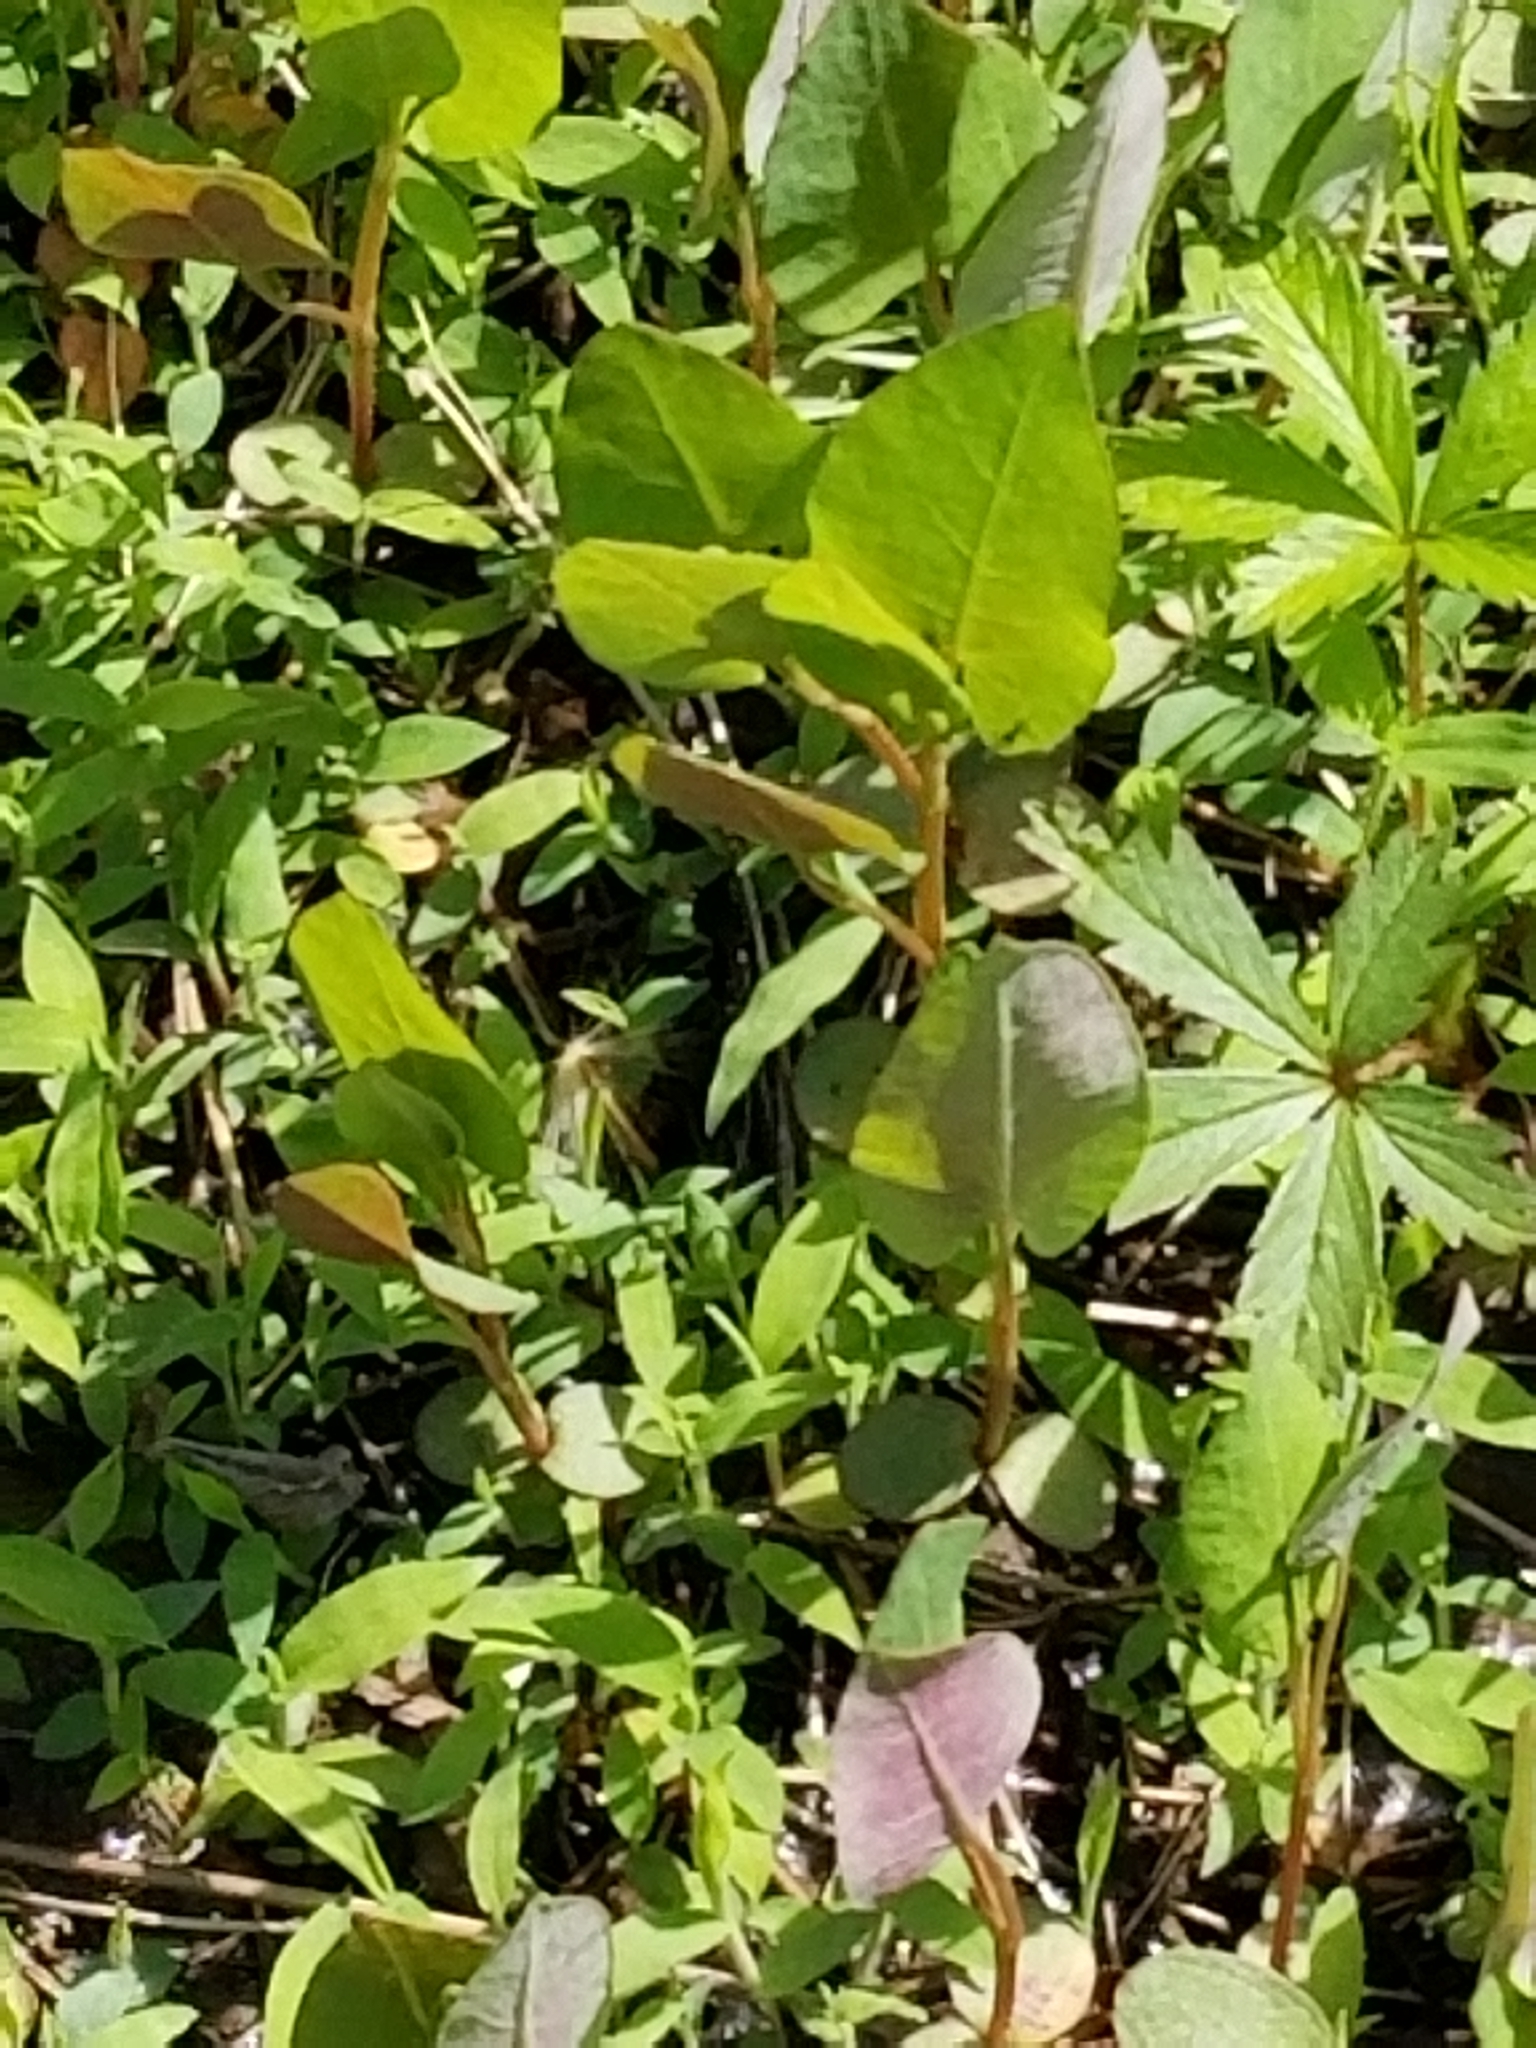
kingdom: Plantae
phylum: Tracheophyta
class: Magnoliopsida
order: Caryophyllales
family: Polygonaceae
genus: Persicaria
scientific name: Persicaria sagittata
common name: American tearthumb
